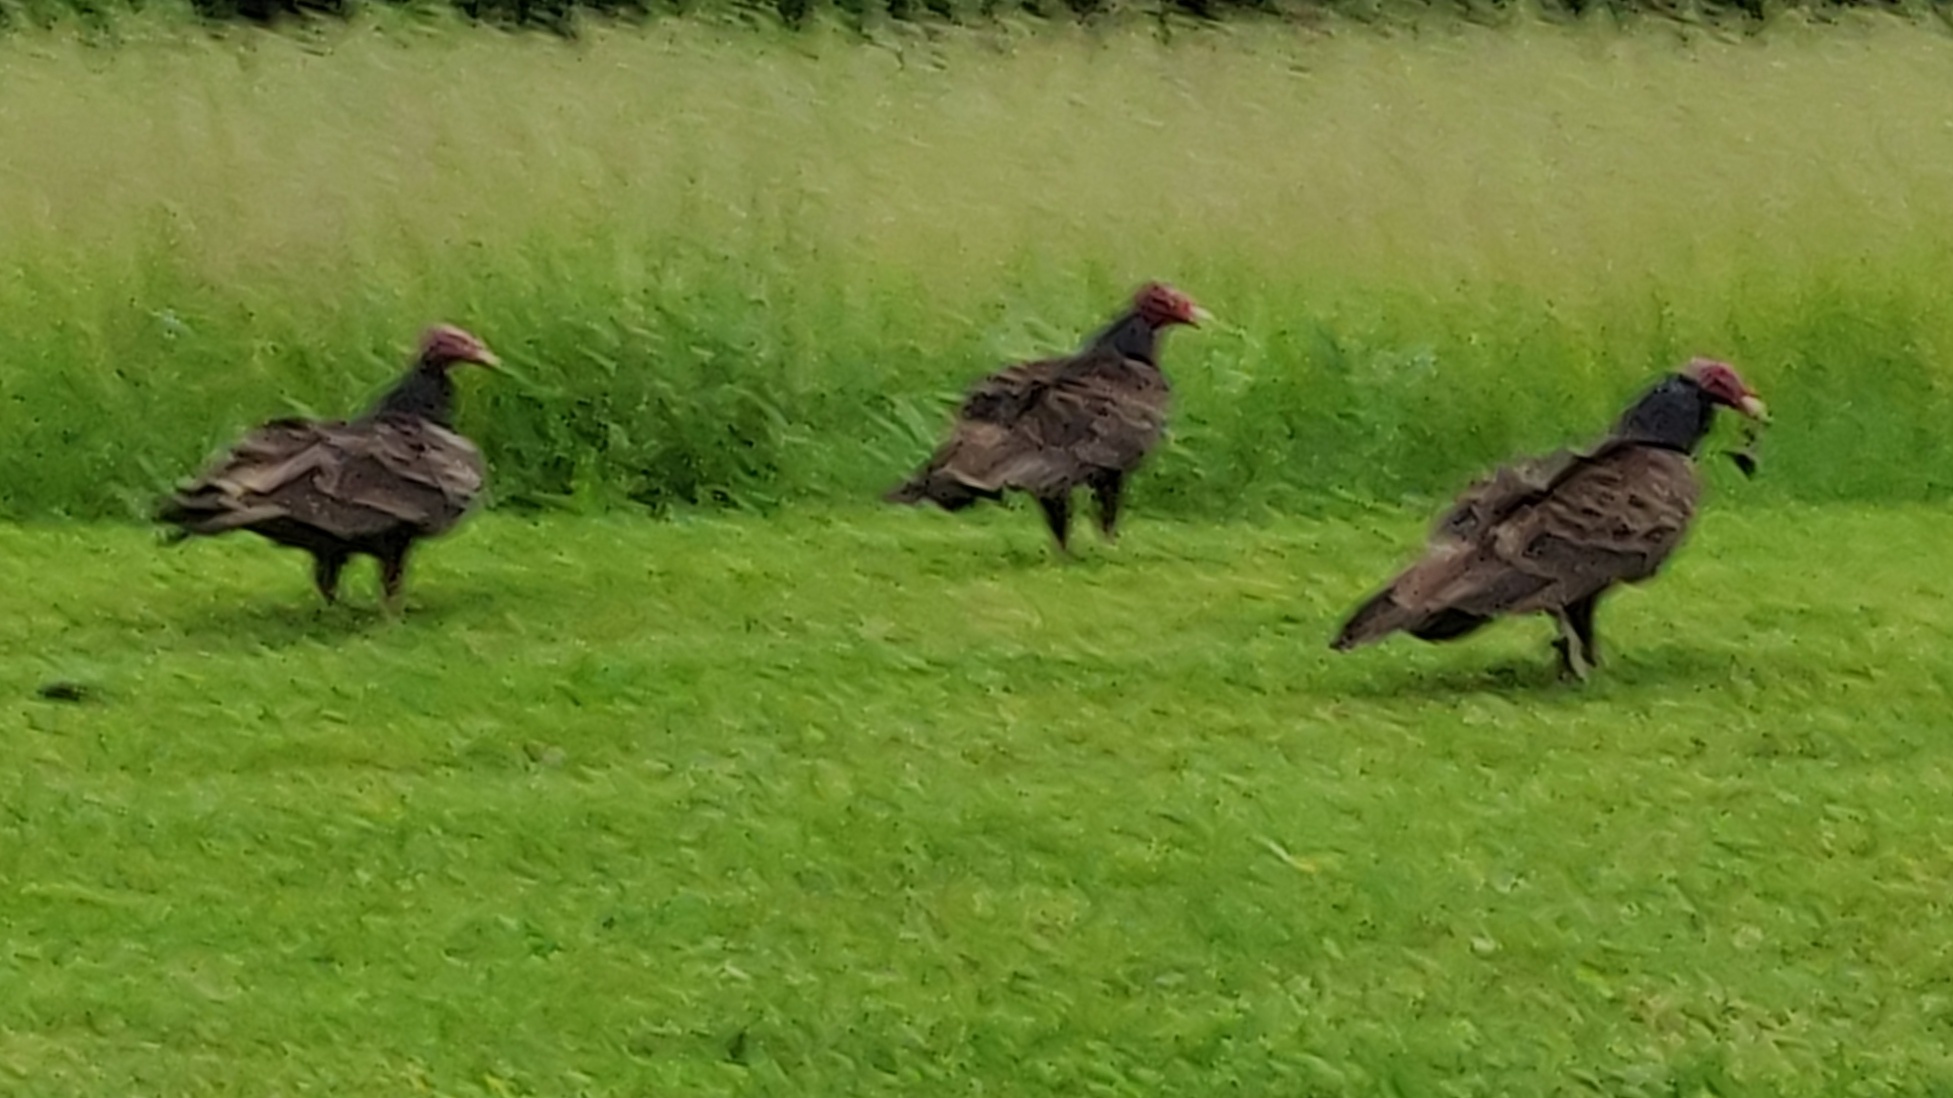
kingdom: Animalia
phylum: Chordata
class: Aves
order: Accipitriformes
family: Cathartidae
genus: Cathartes
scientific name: Cathartes aura
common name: Turkey vulture
